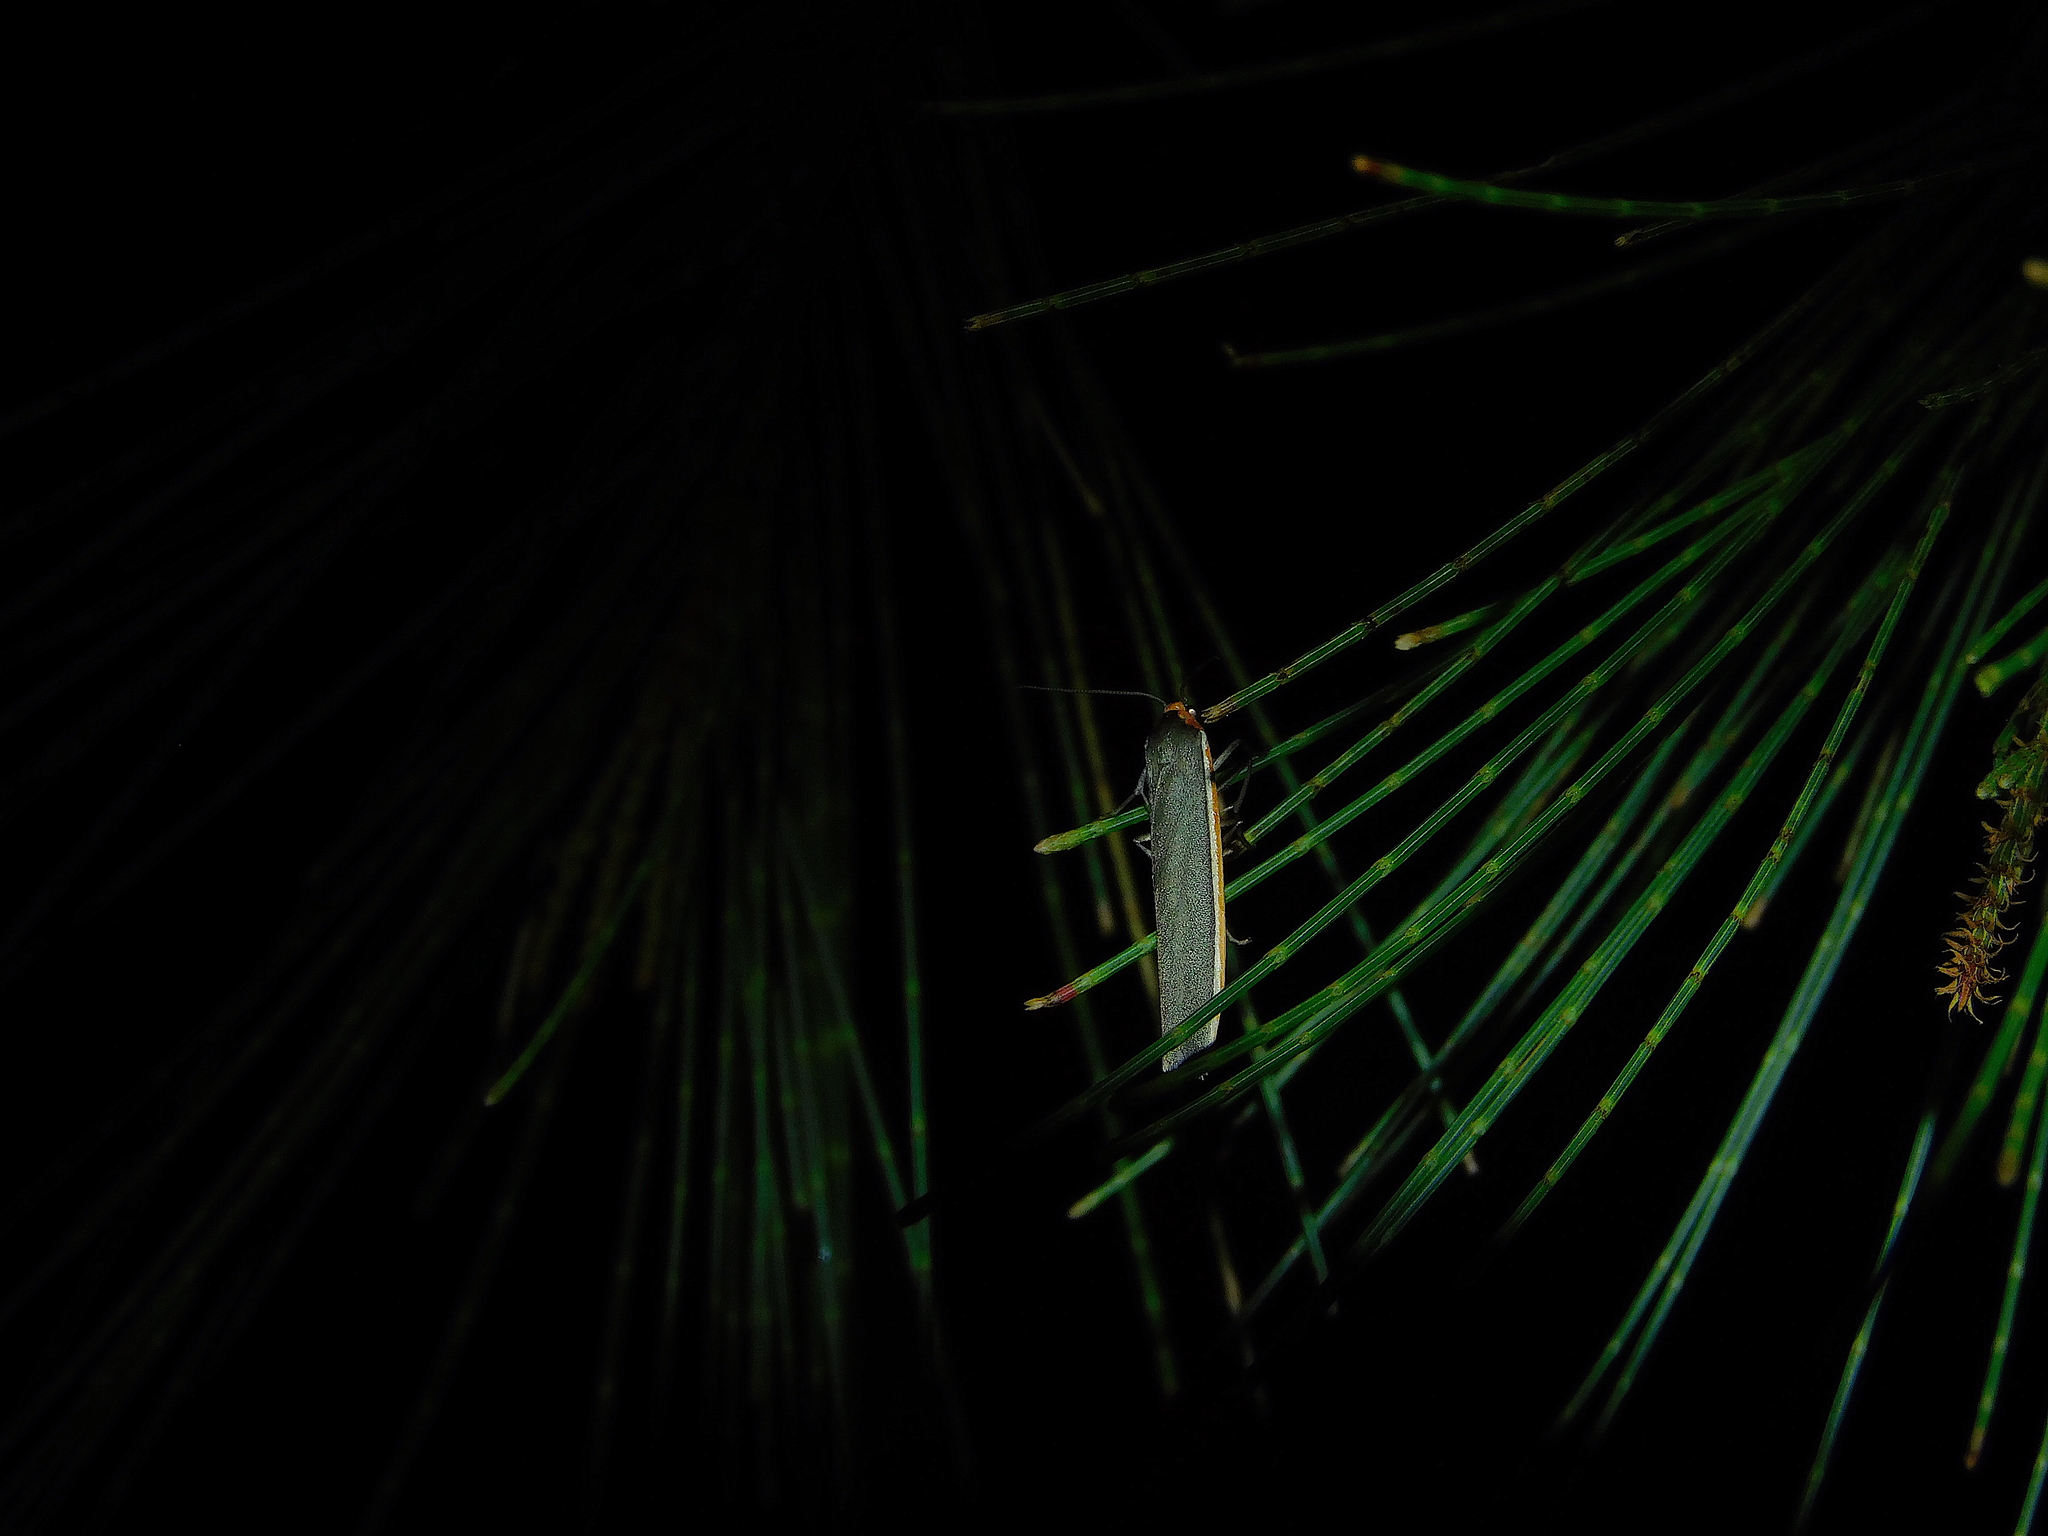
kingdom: Animalia
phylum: Arthropoda
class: Insecta
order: Lepidoptera
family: Erebidae
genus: Palaeosia
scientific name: Palaeosia bicosta
